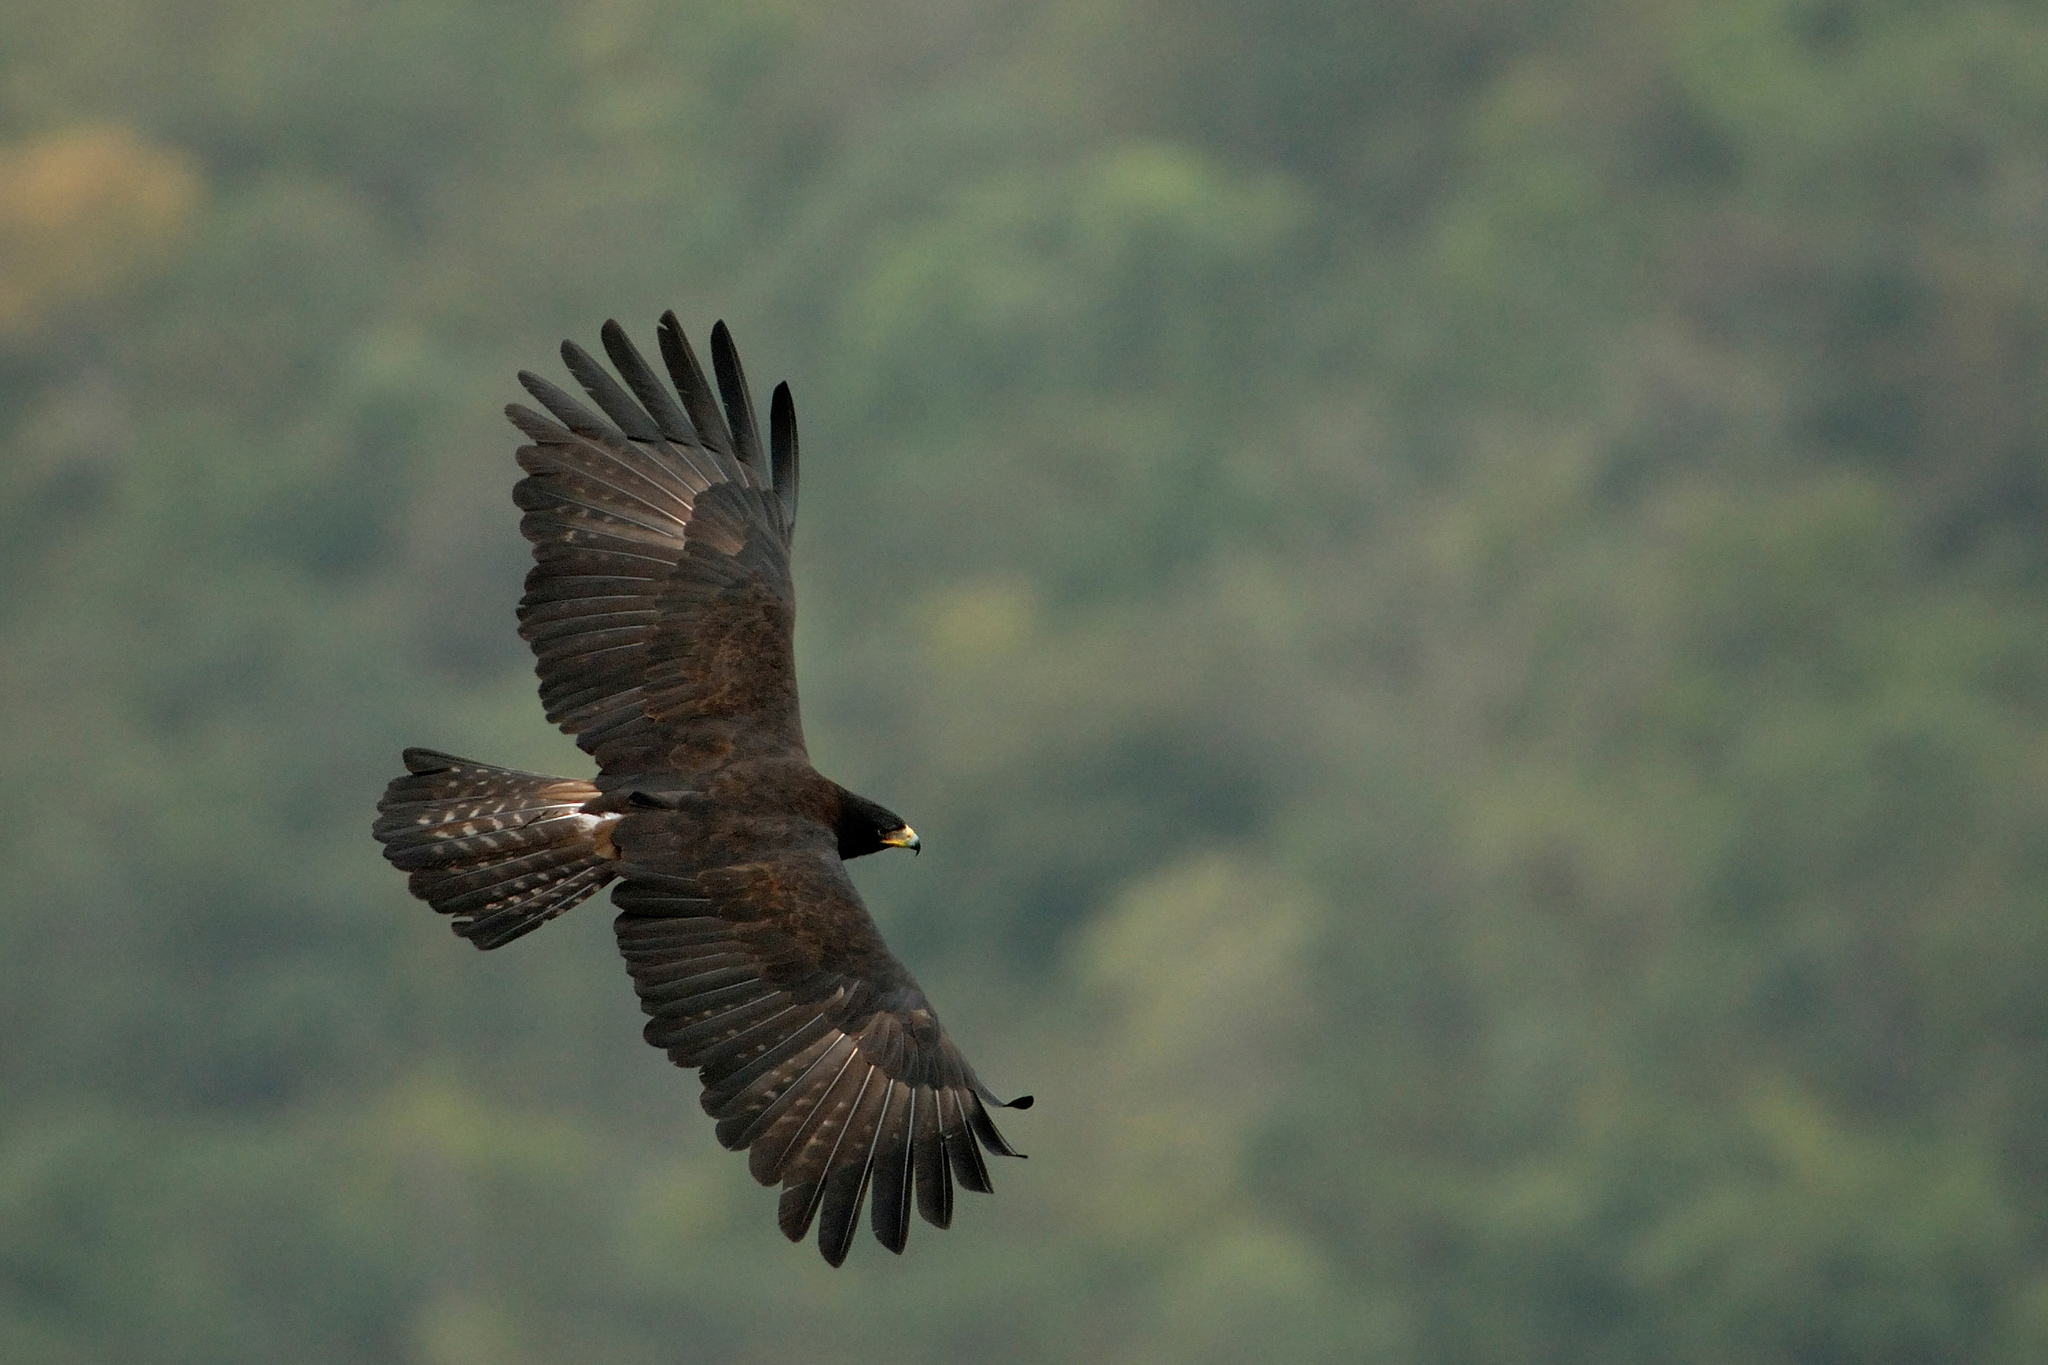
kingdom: Animalia
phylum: Chordata
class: Aves
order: Accipitriformes
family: Accipitridae
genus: Ictinaetus
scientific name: Ictinaetus malayensis
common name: Black eagle
